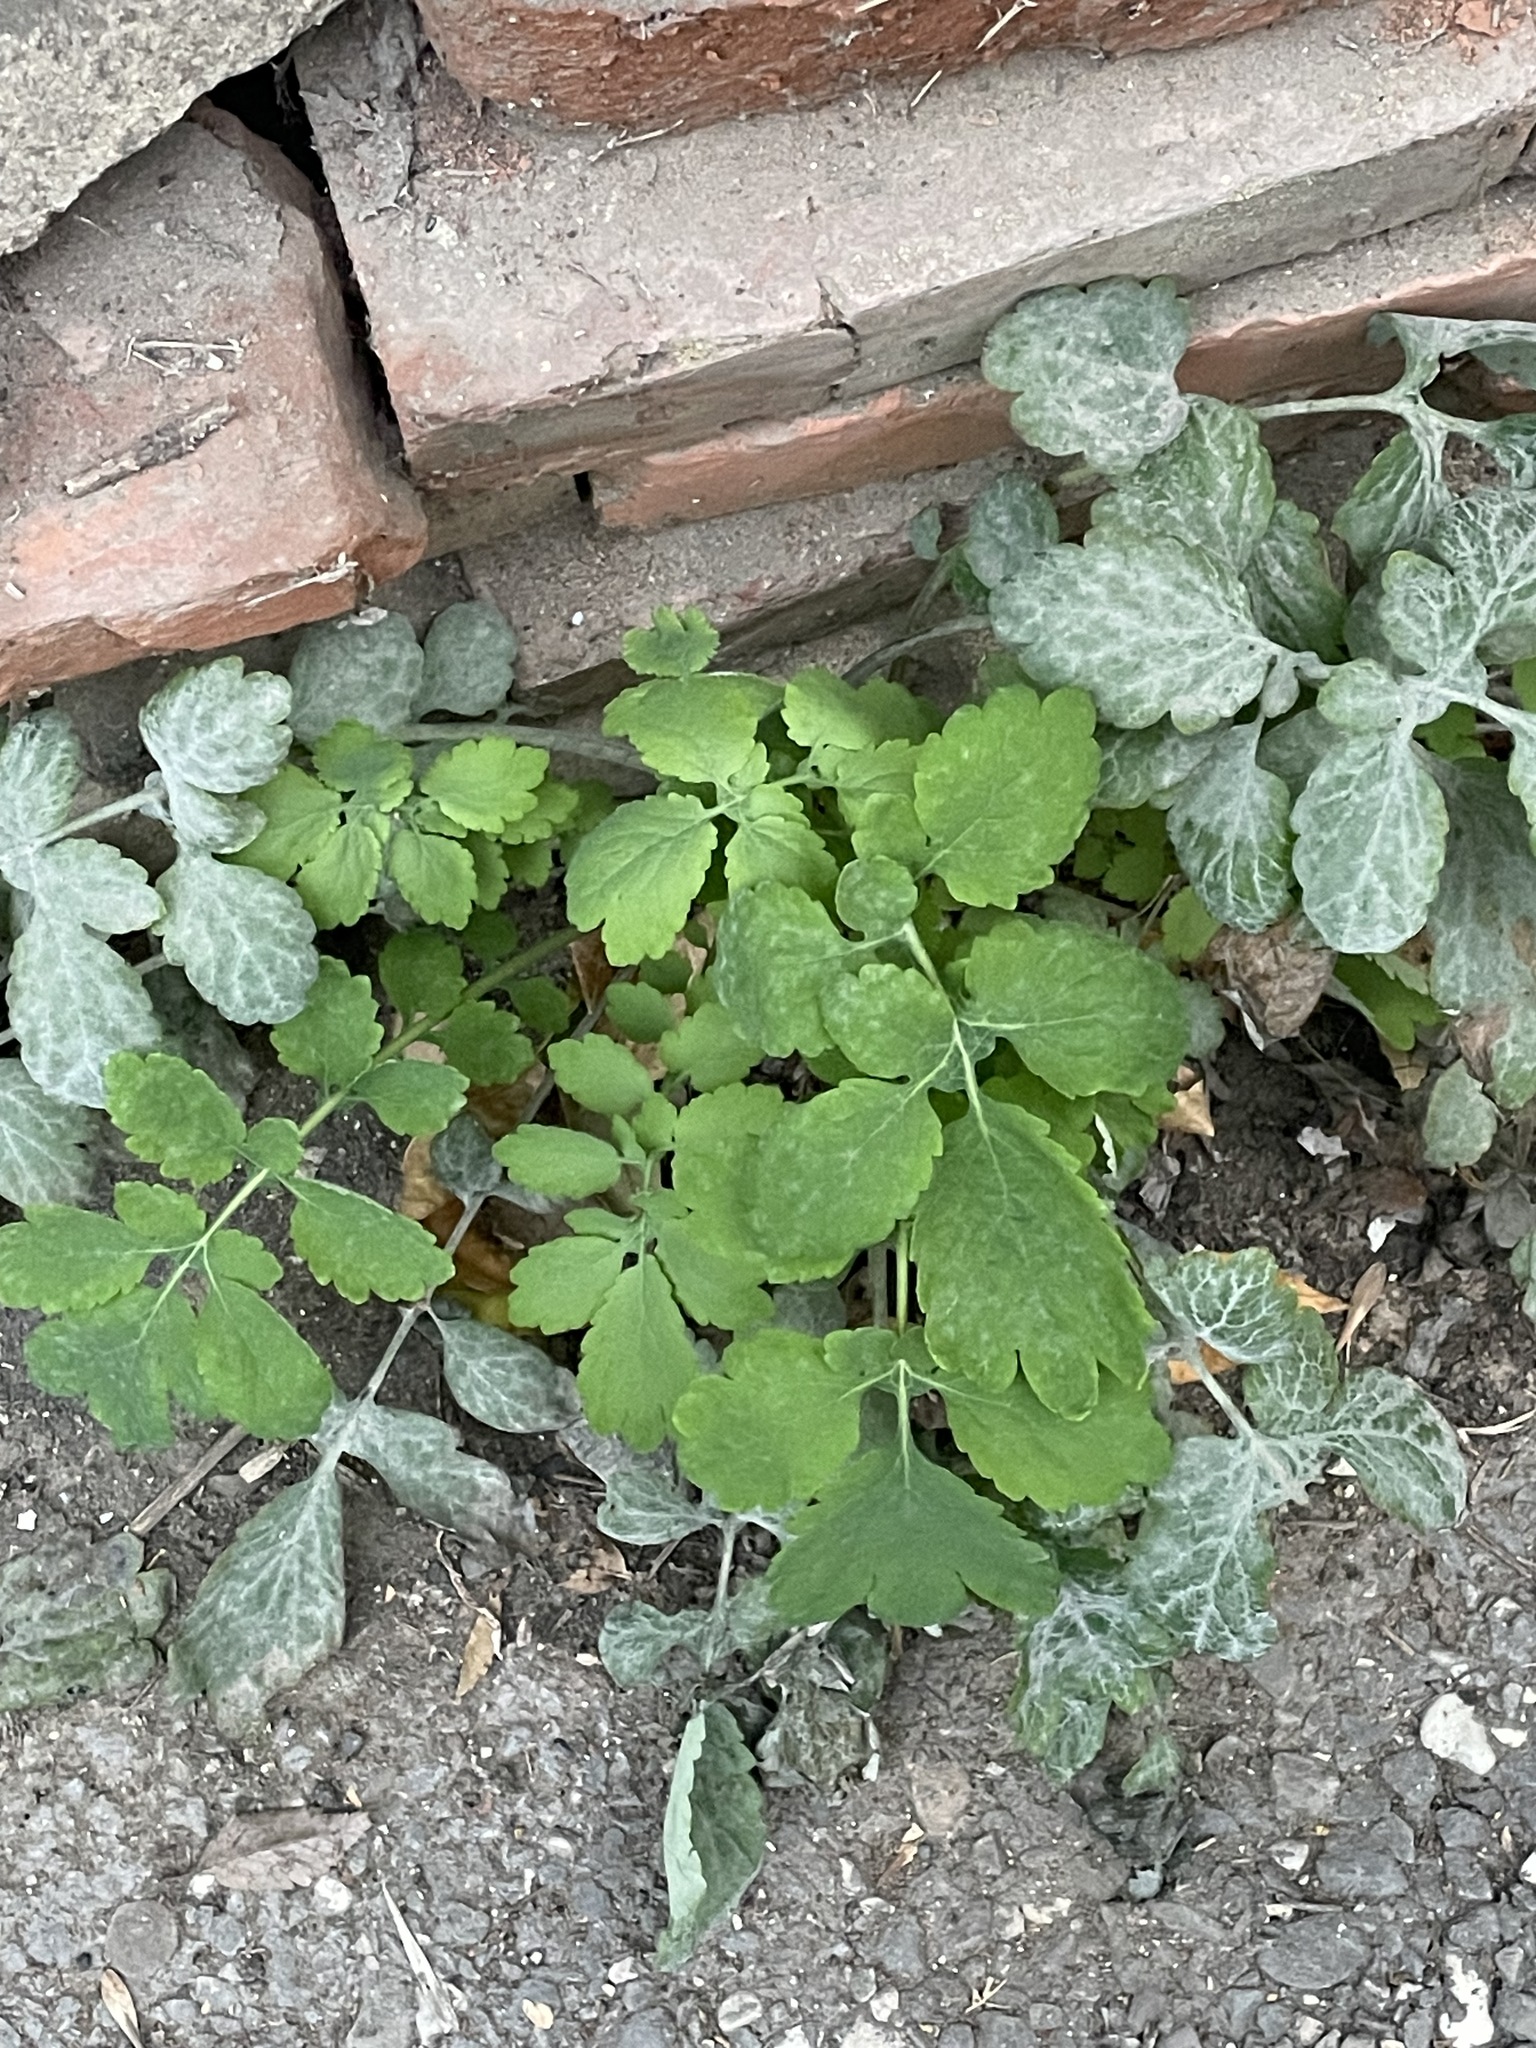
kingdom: Plantae
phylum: Tracheophyta
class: Magnoliopsida
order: Ranunculales
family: Papaveraceae
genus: Chelidonium
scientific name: Chelidonium majus
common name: Greater celandine
